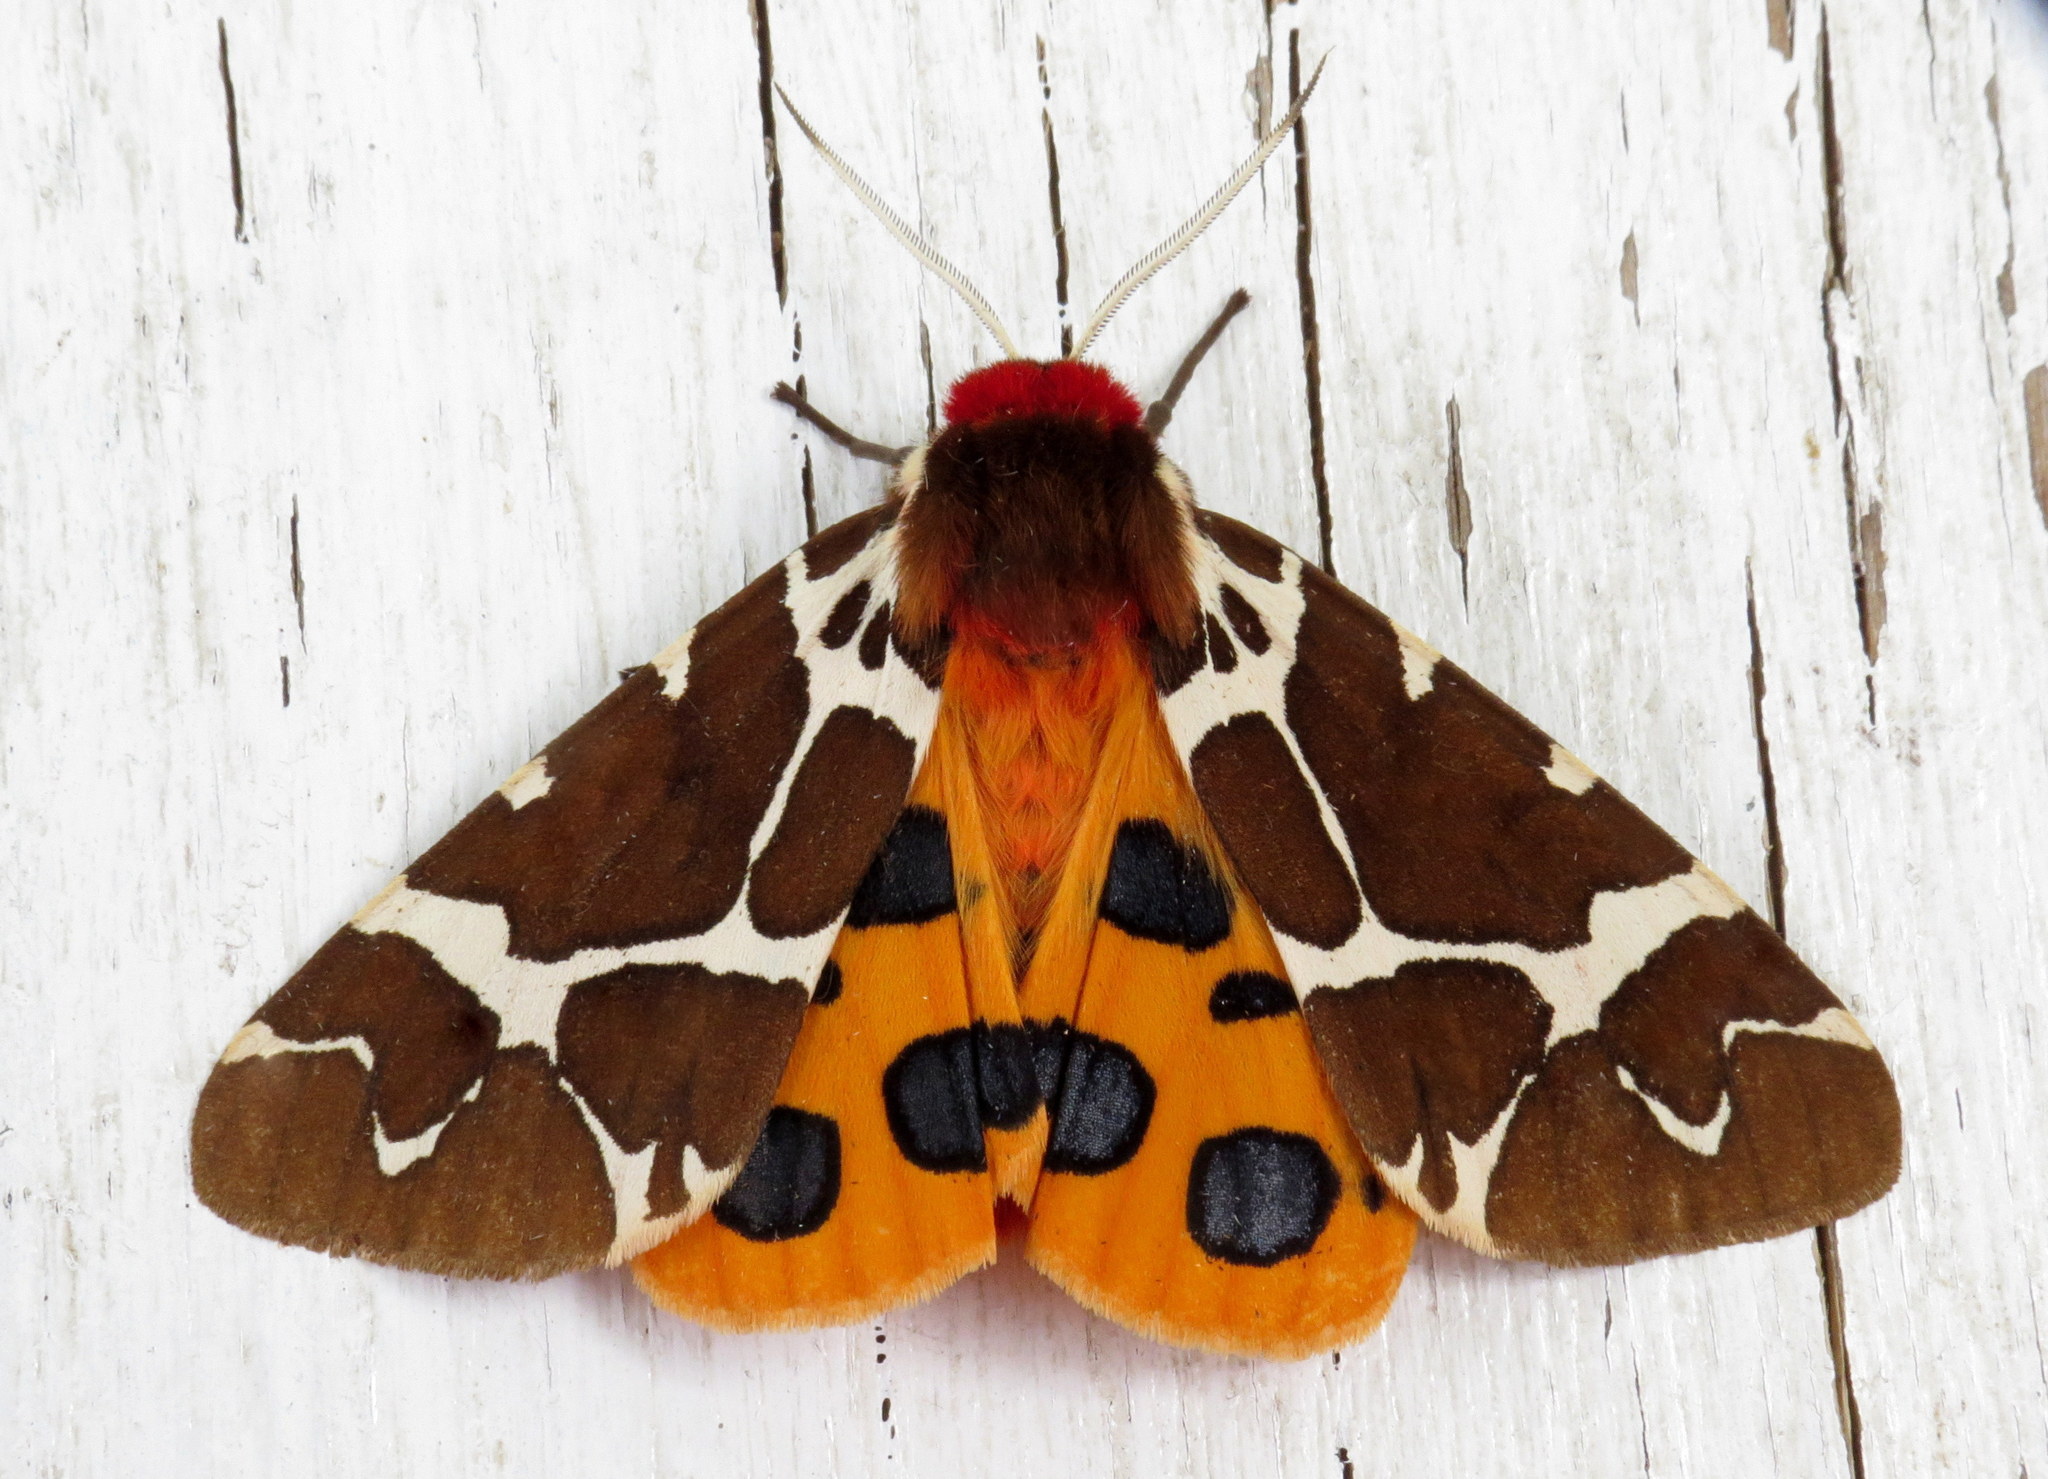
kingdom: Animalia
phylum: Arthropoda
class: Insecta
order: Lepidoptera
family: Erebidae
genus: Arctia
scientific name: Arctia caja
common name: Garden tiger
